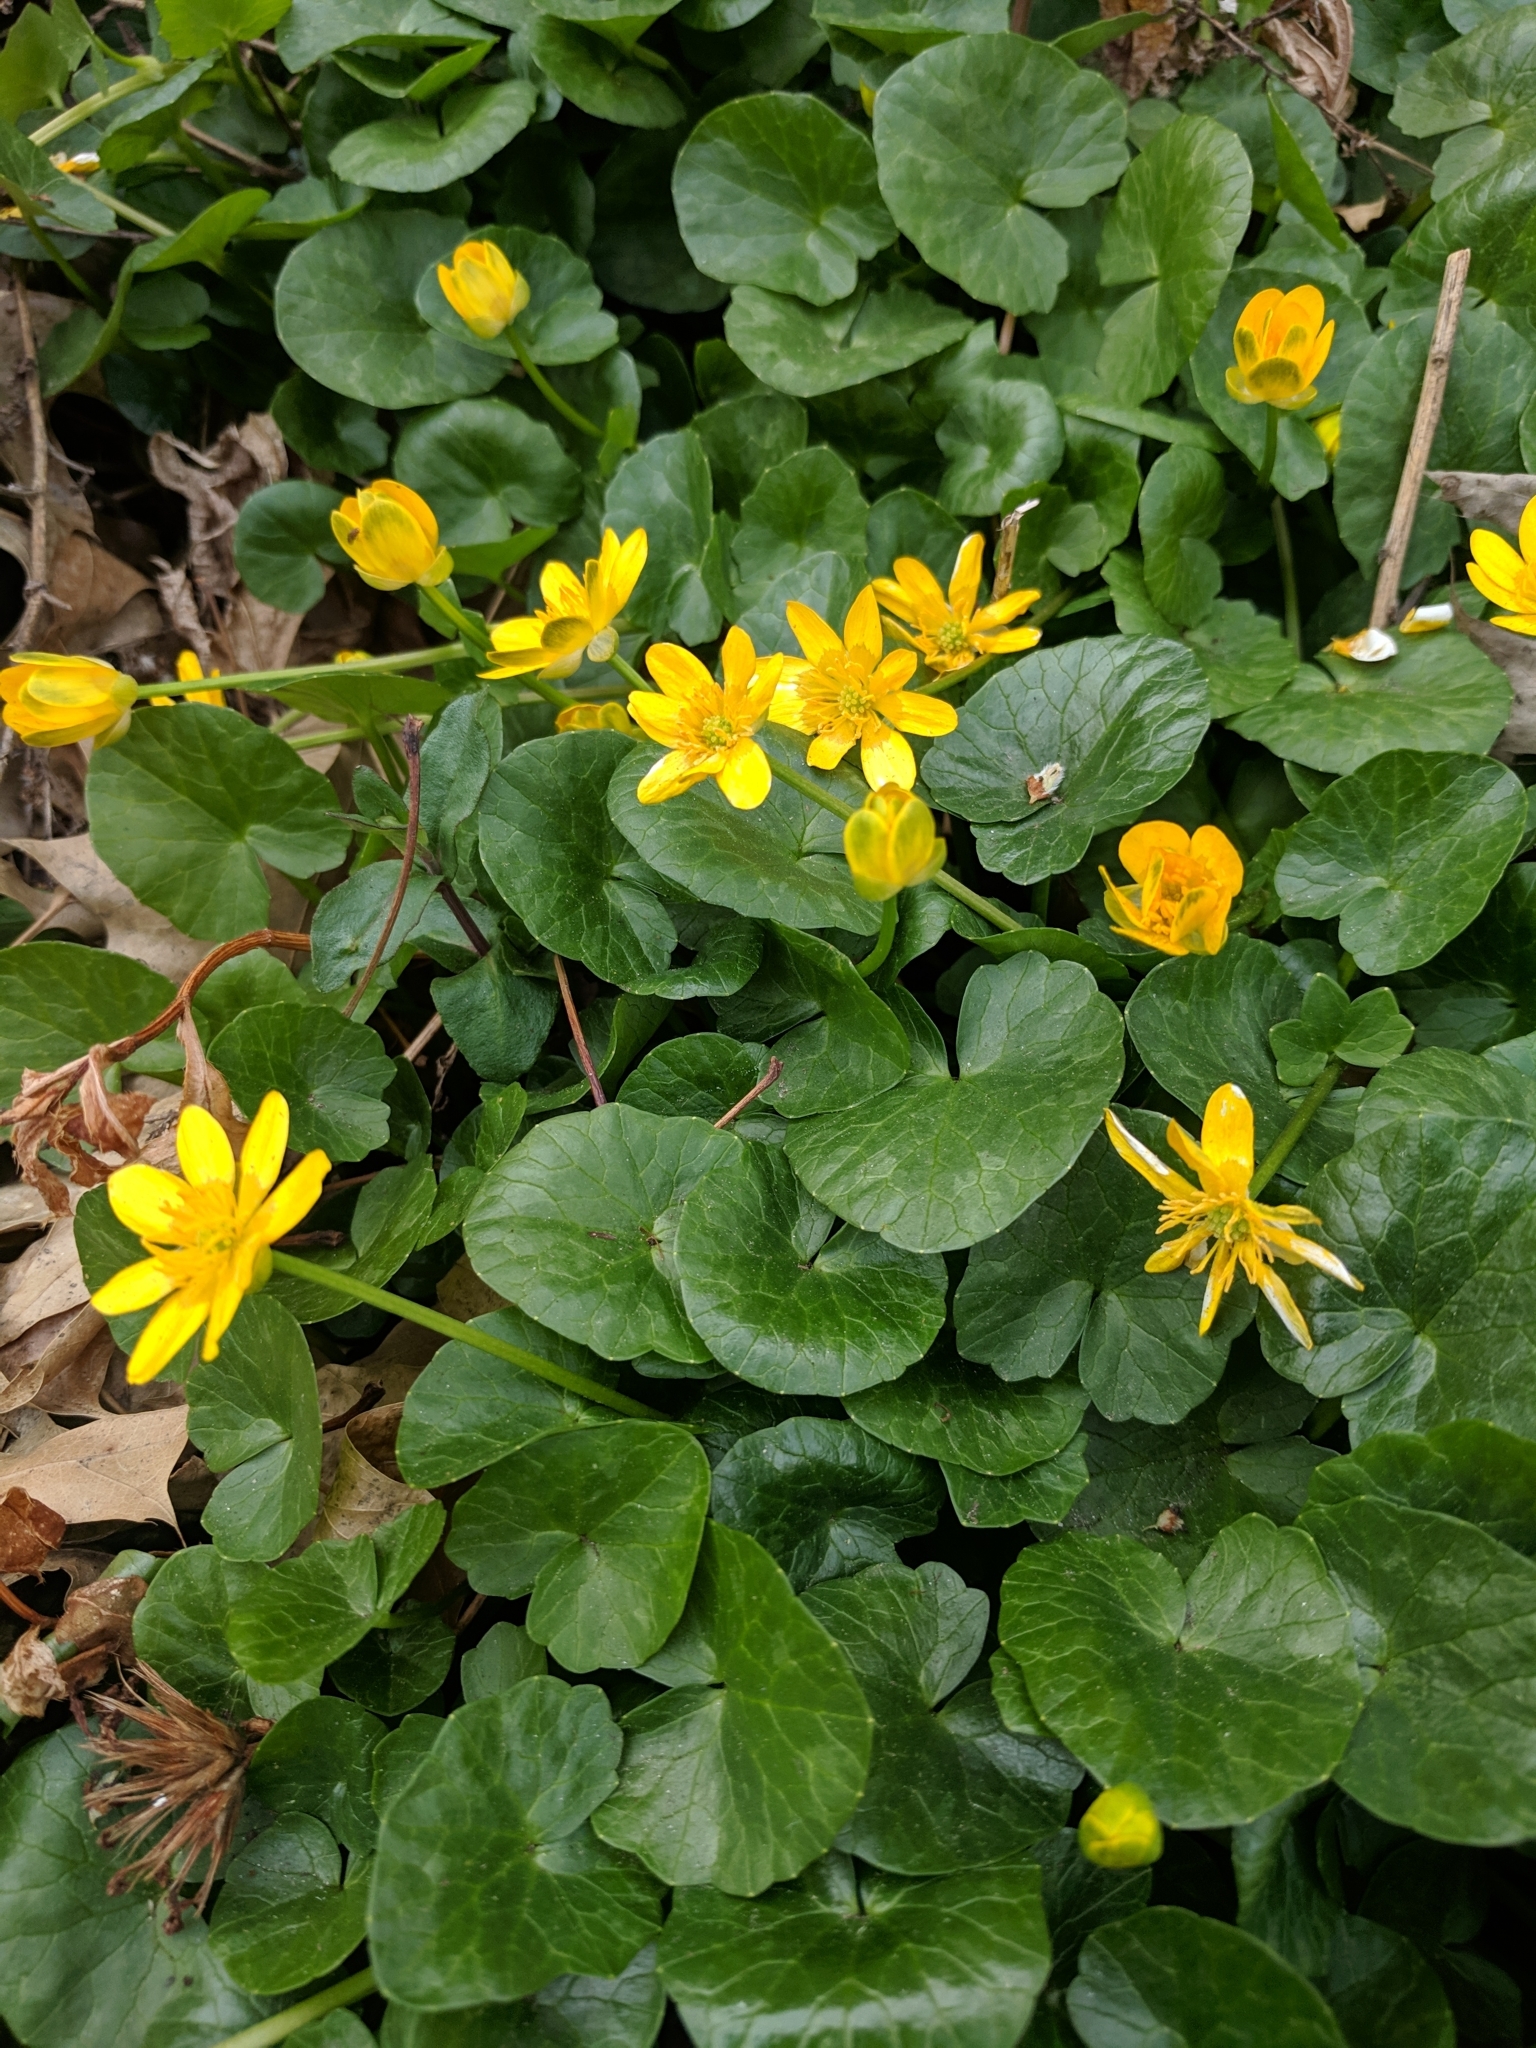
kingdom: Plantae
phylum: Tracheophyta
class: Magnoliopsida
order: Ranunculales
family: Ranunculaceae
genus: Ficaria
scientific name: Ficaria verna
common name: Lesser celandine
